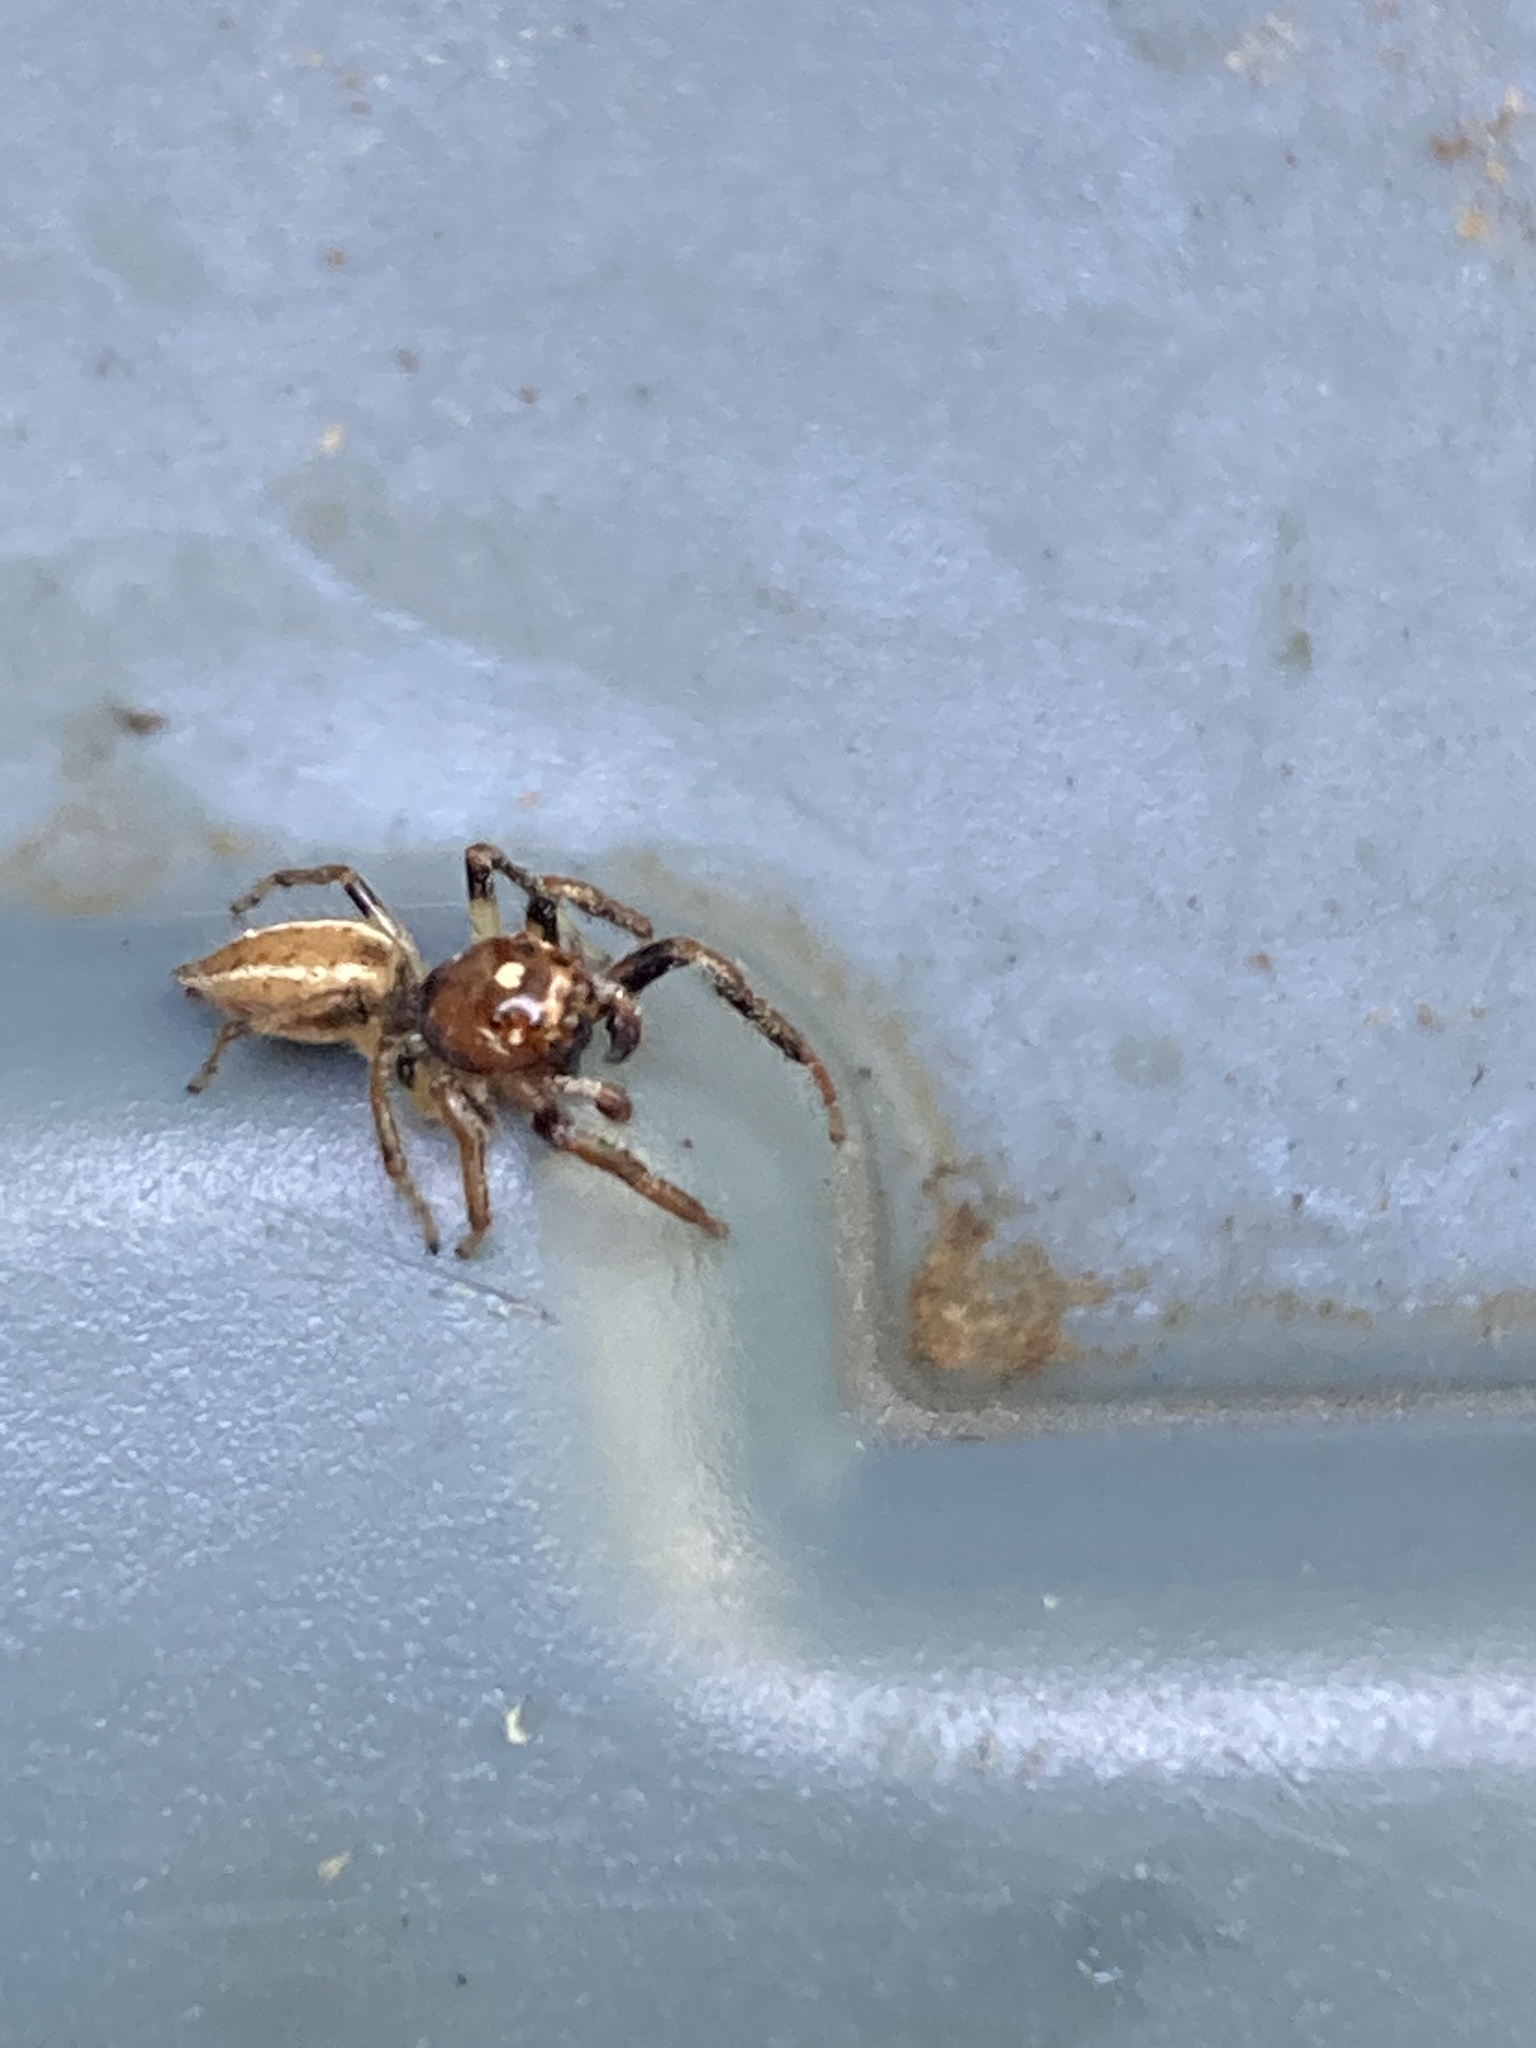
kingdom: Animalia
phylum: Arthropoda
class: Arachnida
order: Araneae
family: Salticidae
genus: Colonus
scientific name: Colonus sylvanus
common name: Jumping spiders
